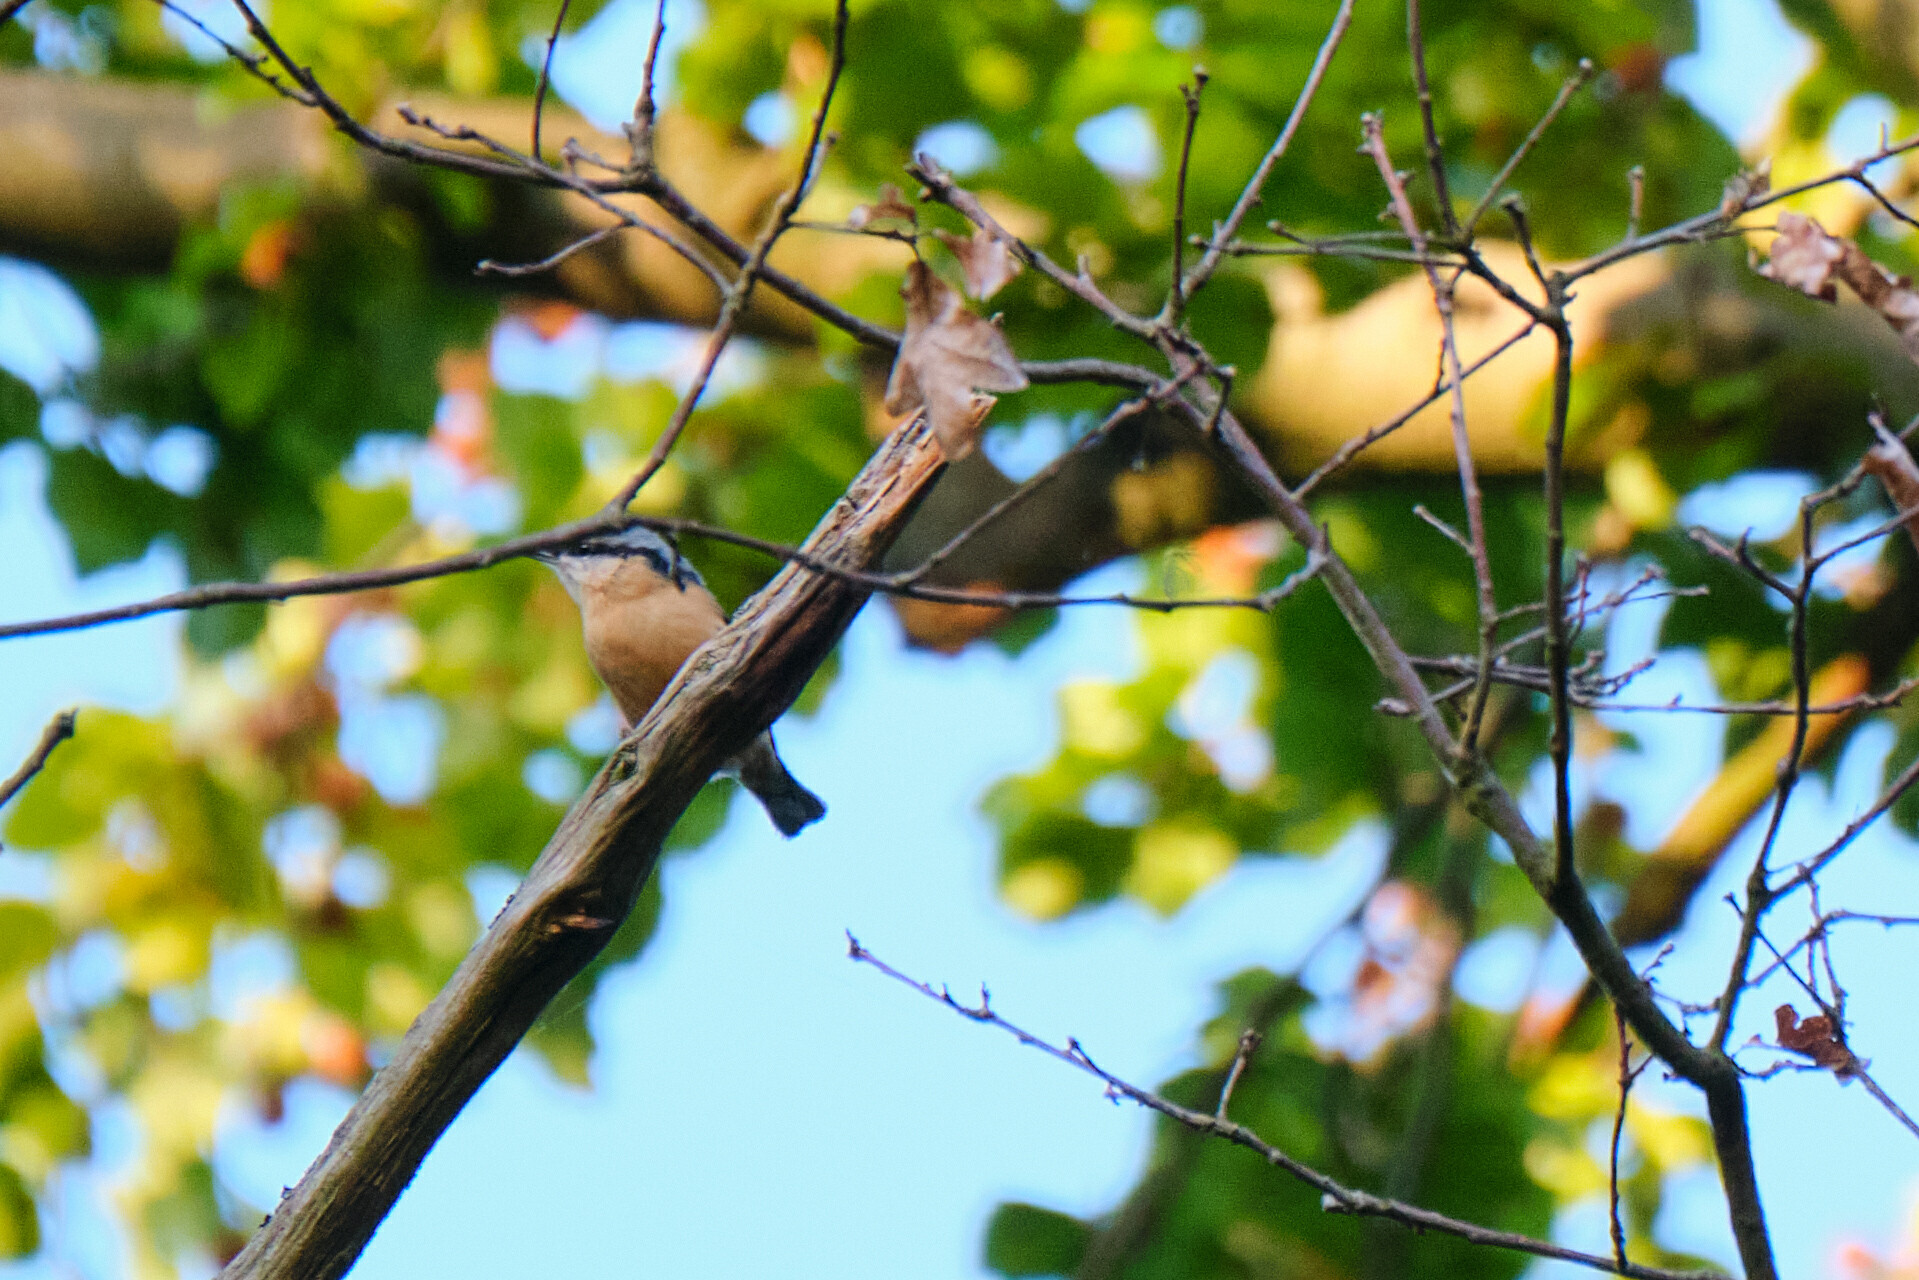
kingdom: Animalia
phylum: Chordata
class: Aves
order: Passeriformes
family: Sittidae
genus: Sitta
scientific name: Sitta europaea
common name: Eurasian nuthatch
